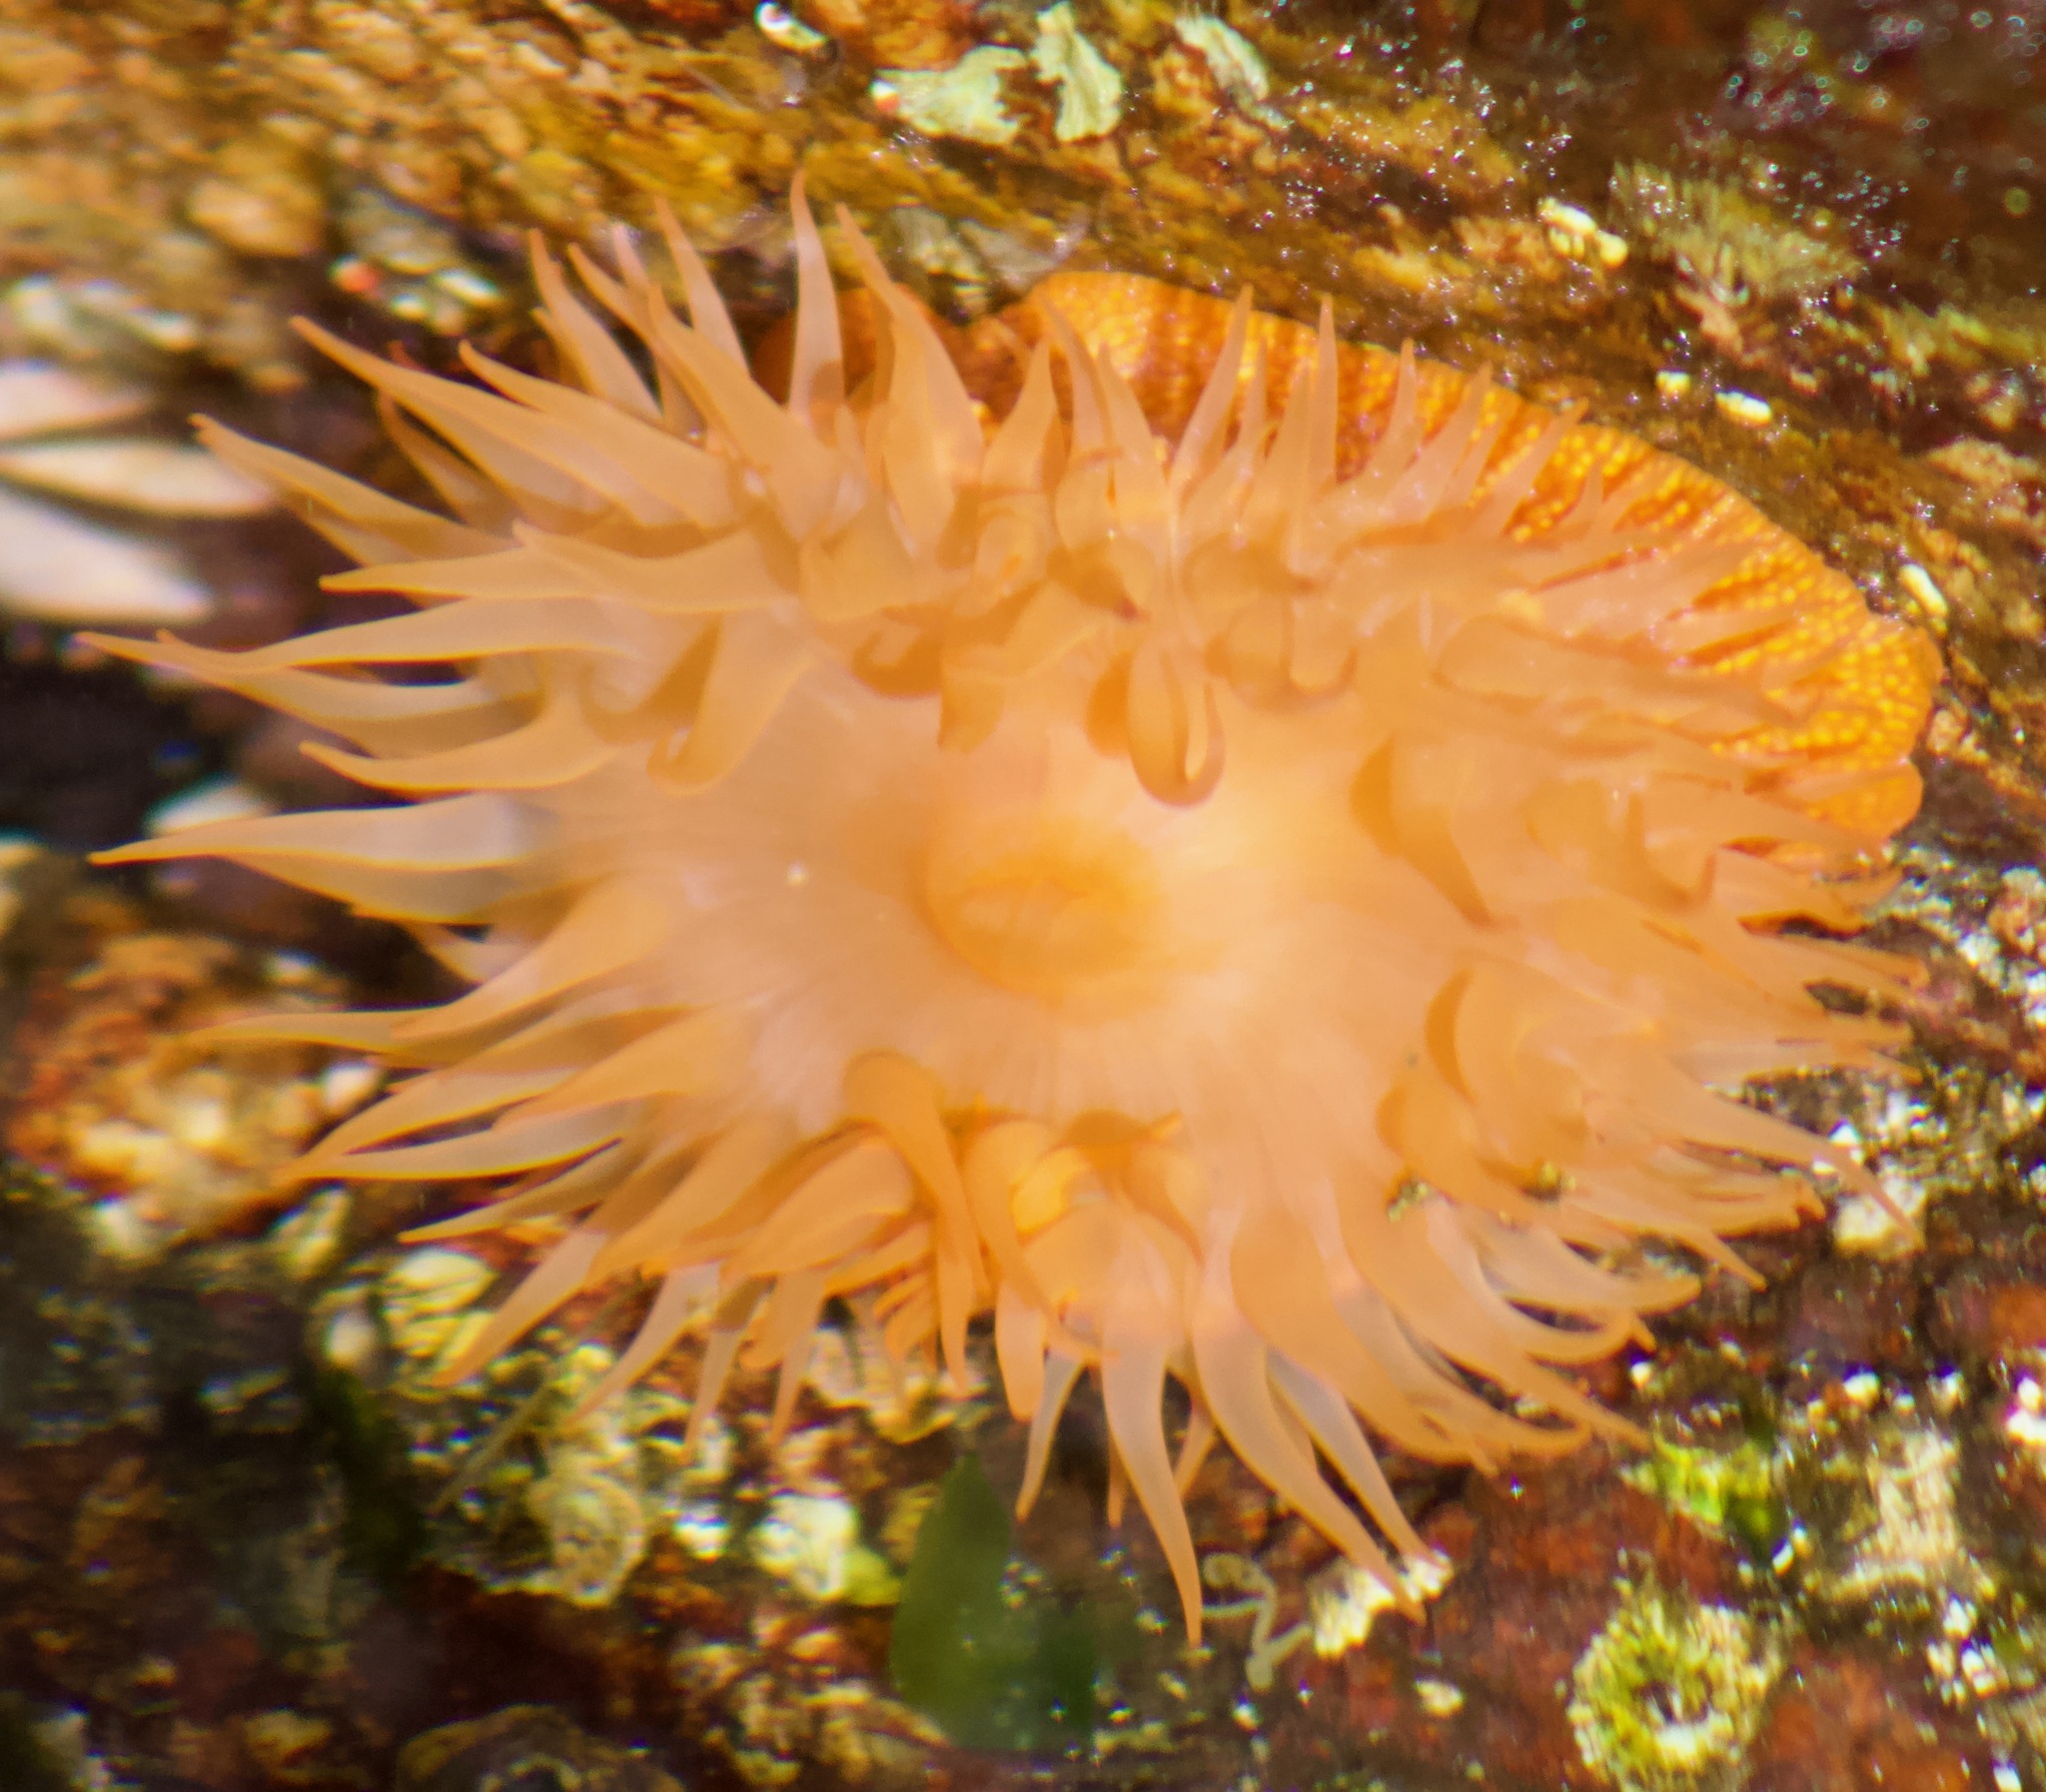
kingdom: Animalia
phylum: Cnidaria
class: Anthozoa
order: Actiniaria
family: Actiniidae
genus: Phymanthea
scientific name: Phymanthea pluvia
